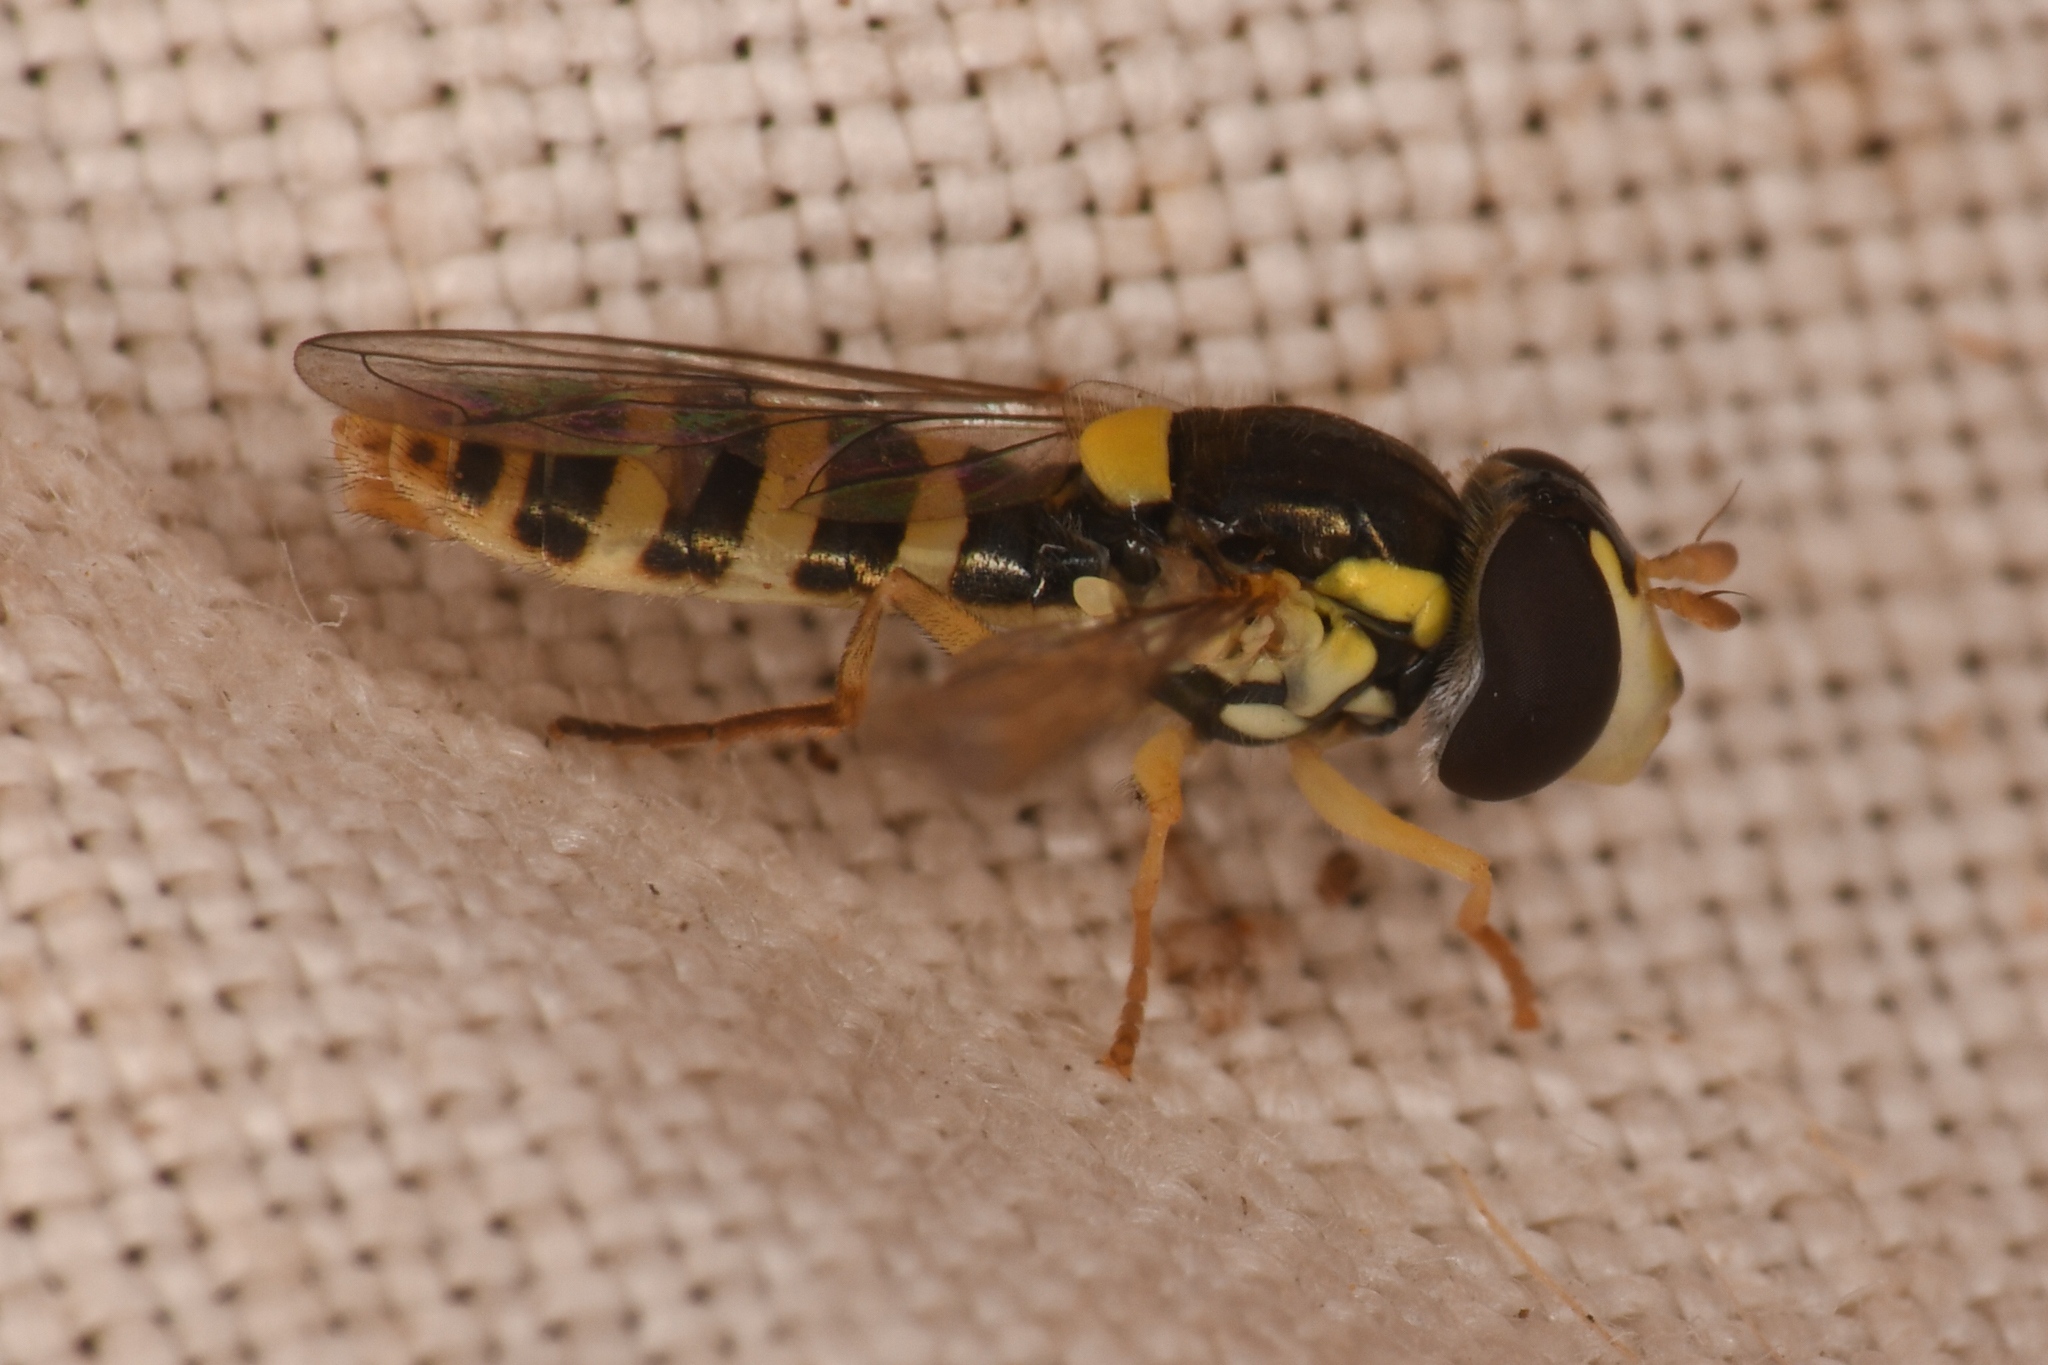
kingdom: Animalia
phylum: Arthropoda
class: Insecta
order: Diptera
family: Syrphidae
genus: Sphaerophoria
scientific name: Sphaerophoria sulphuripes
